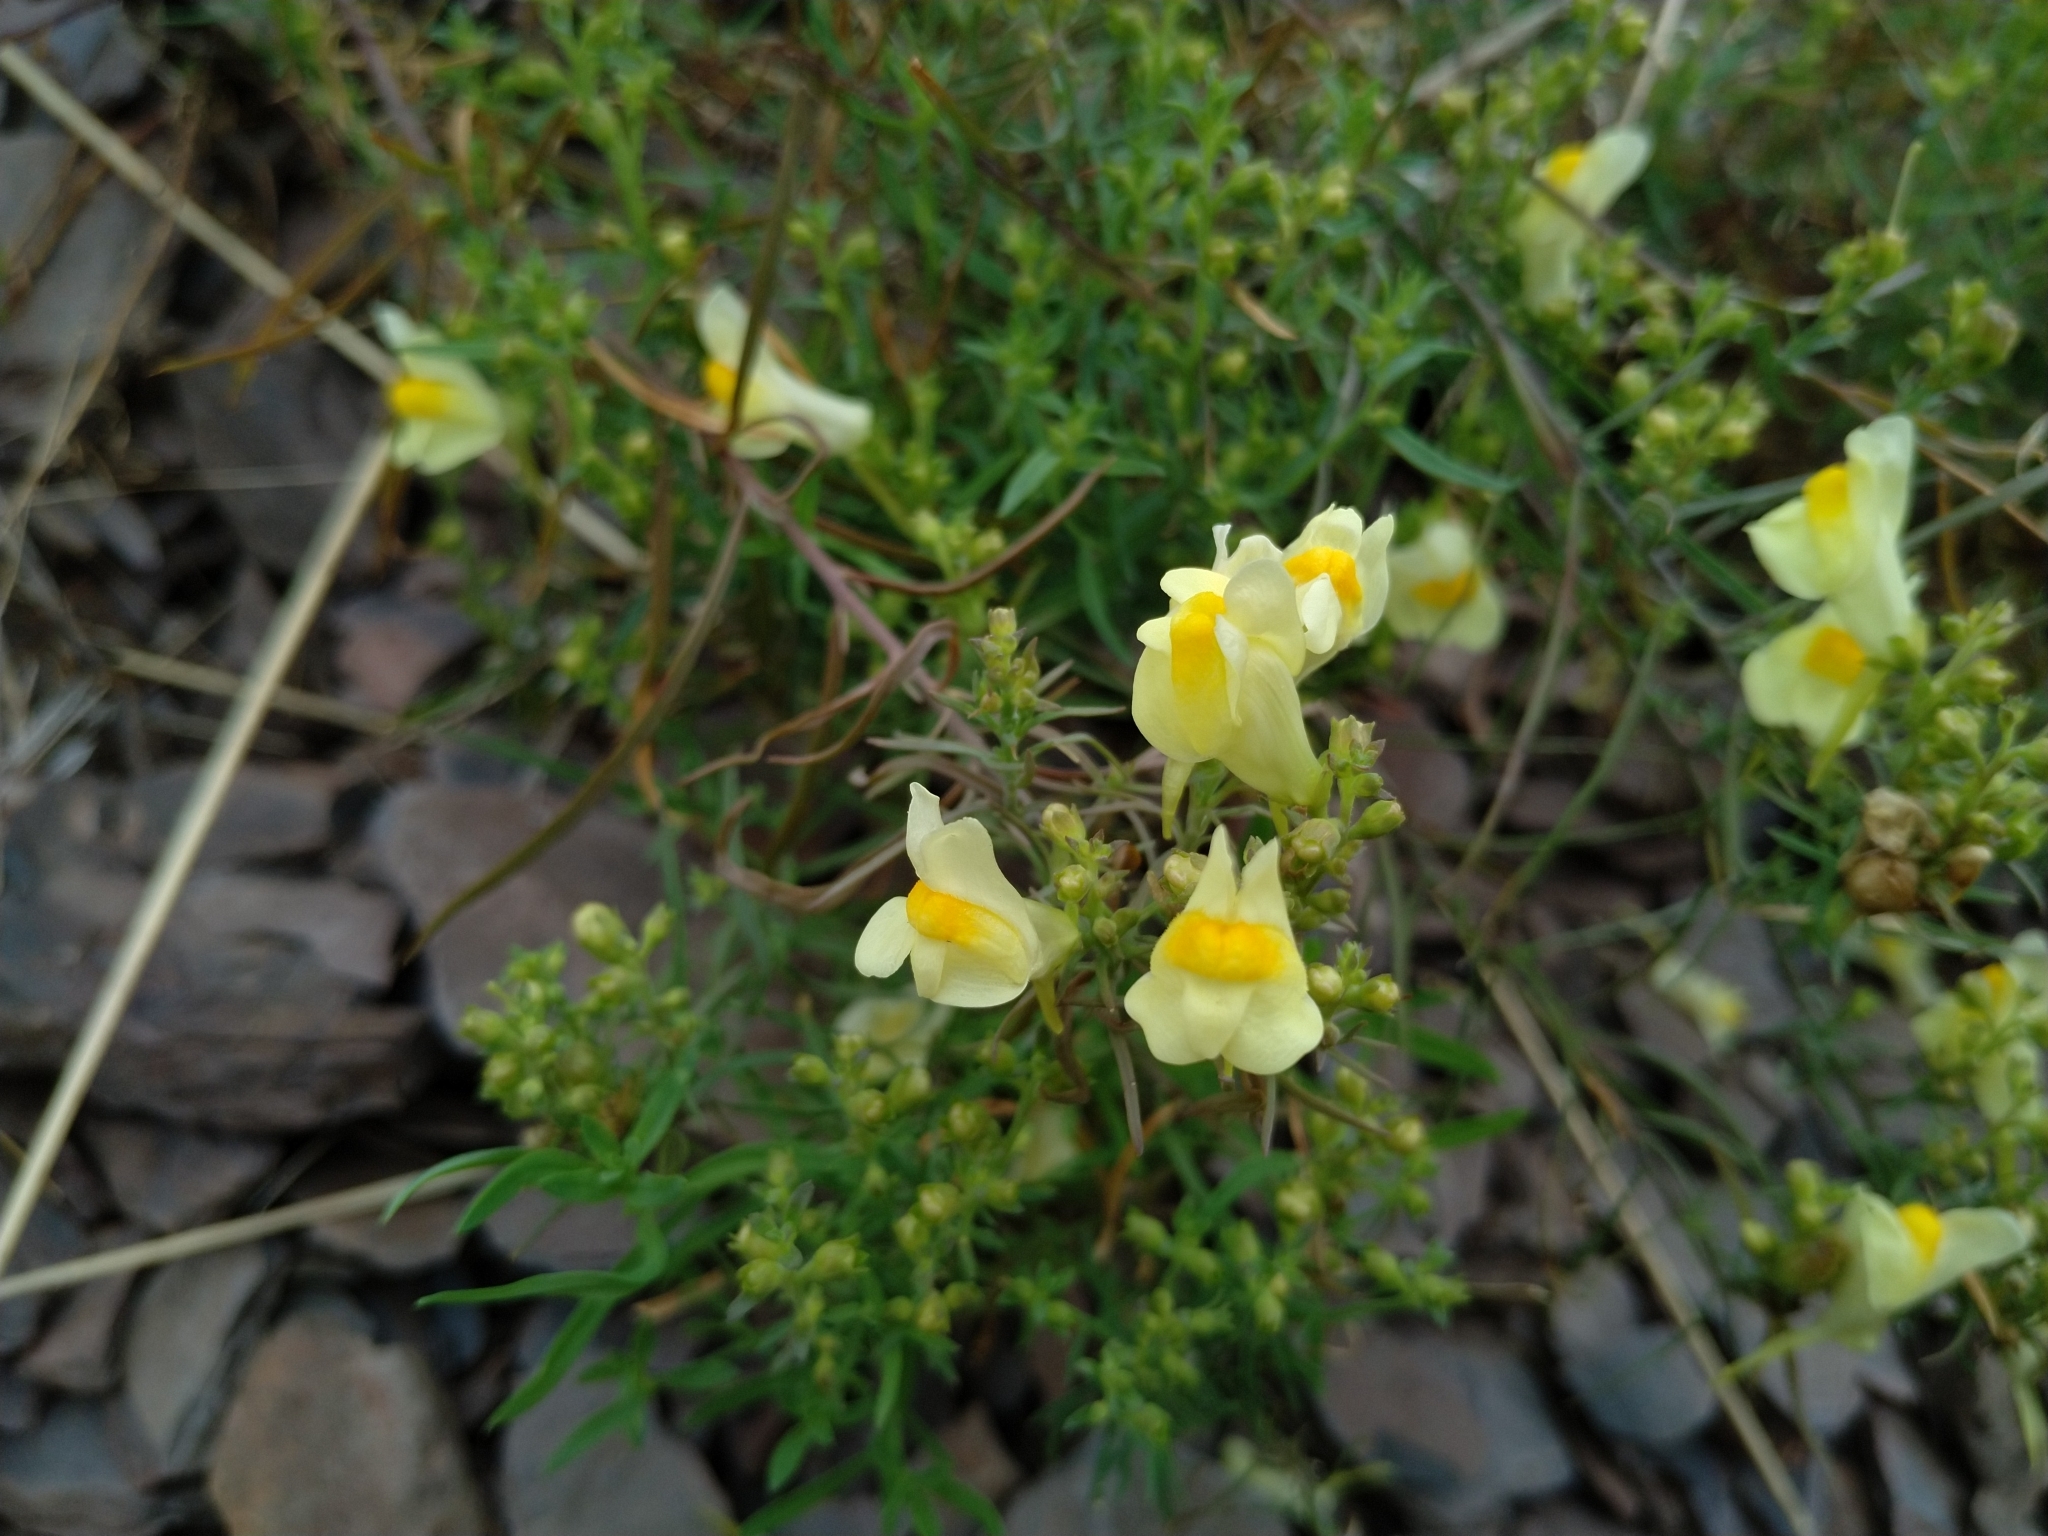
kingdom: Plantae
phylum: Tracheophyta
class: Magnoliopsida
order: Lamiales
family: Plantaginaceae
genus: Linaria
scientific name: Linaria vulgaris
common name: Butter and eggs
